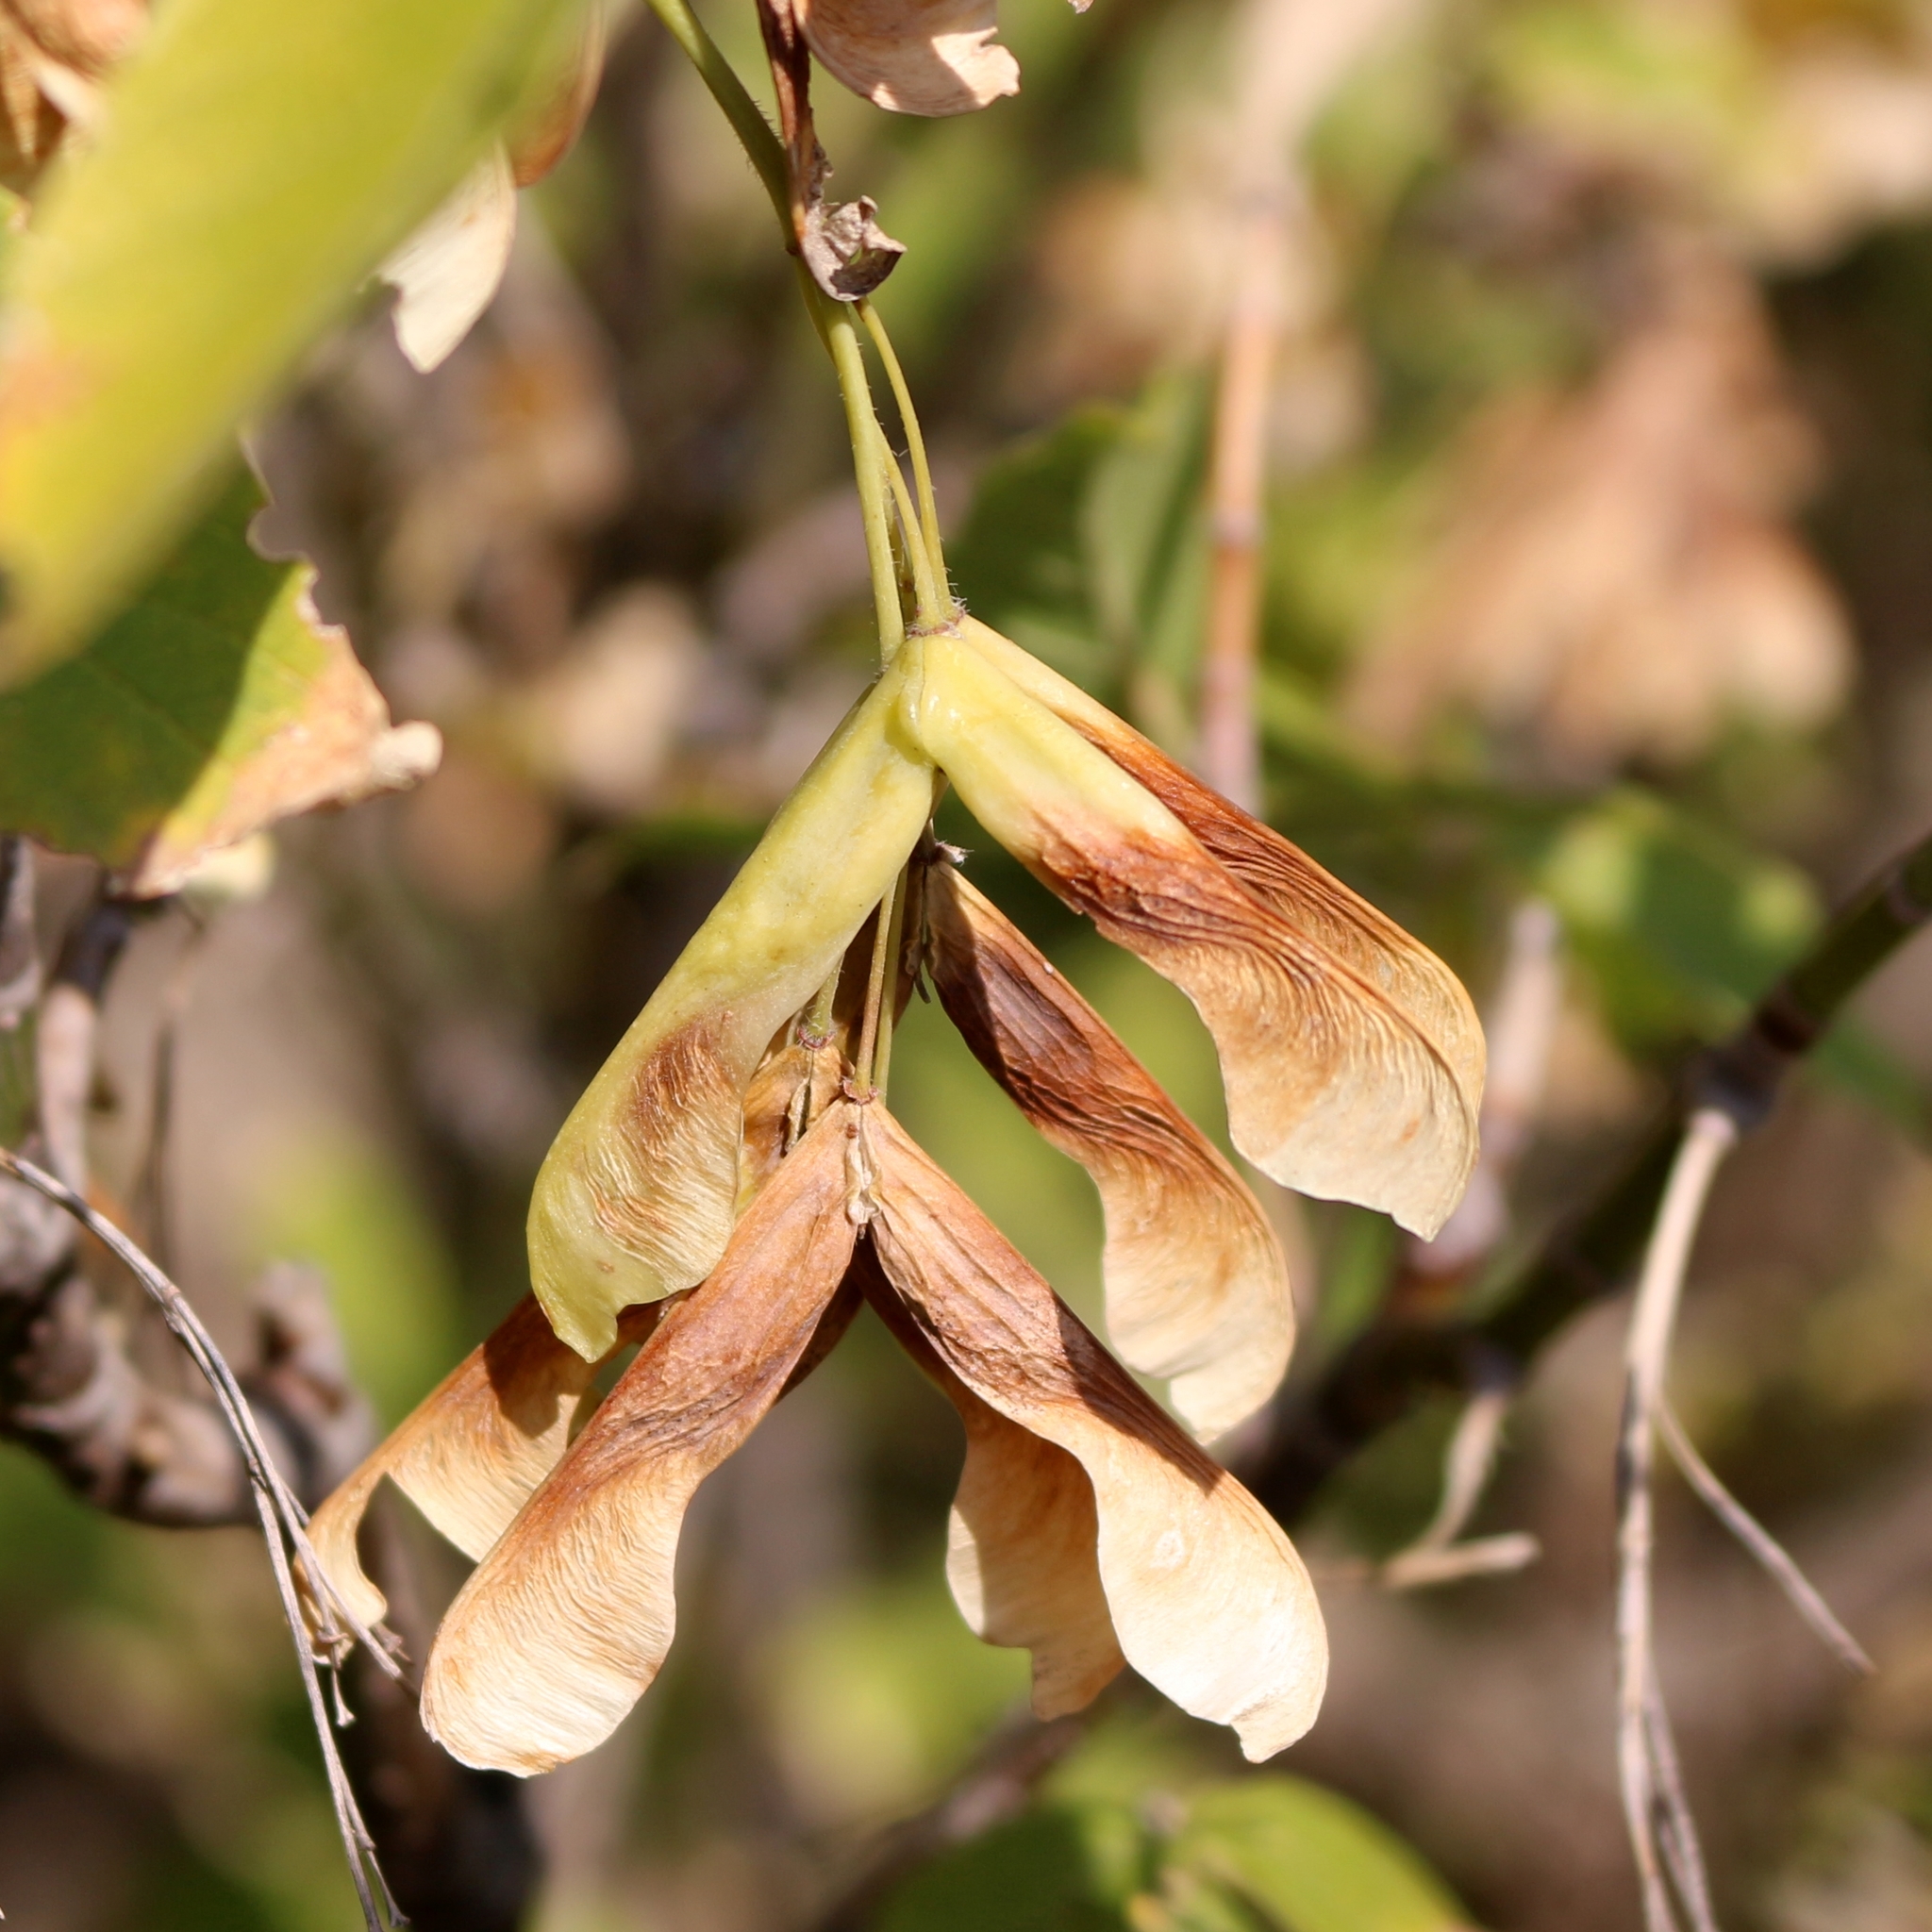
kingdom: Plantae
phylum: Tracheophyta
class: Magnoliopsida
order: Sapindales
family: Sapindaceae
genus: Acer
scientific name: Acer negundo
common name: Ashleaf maple
